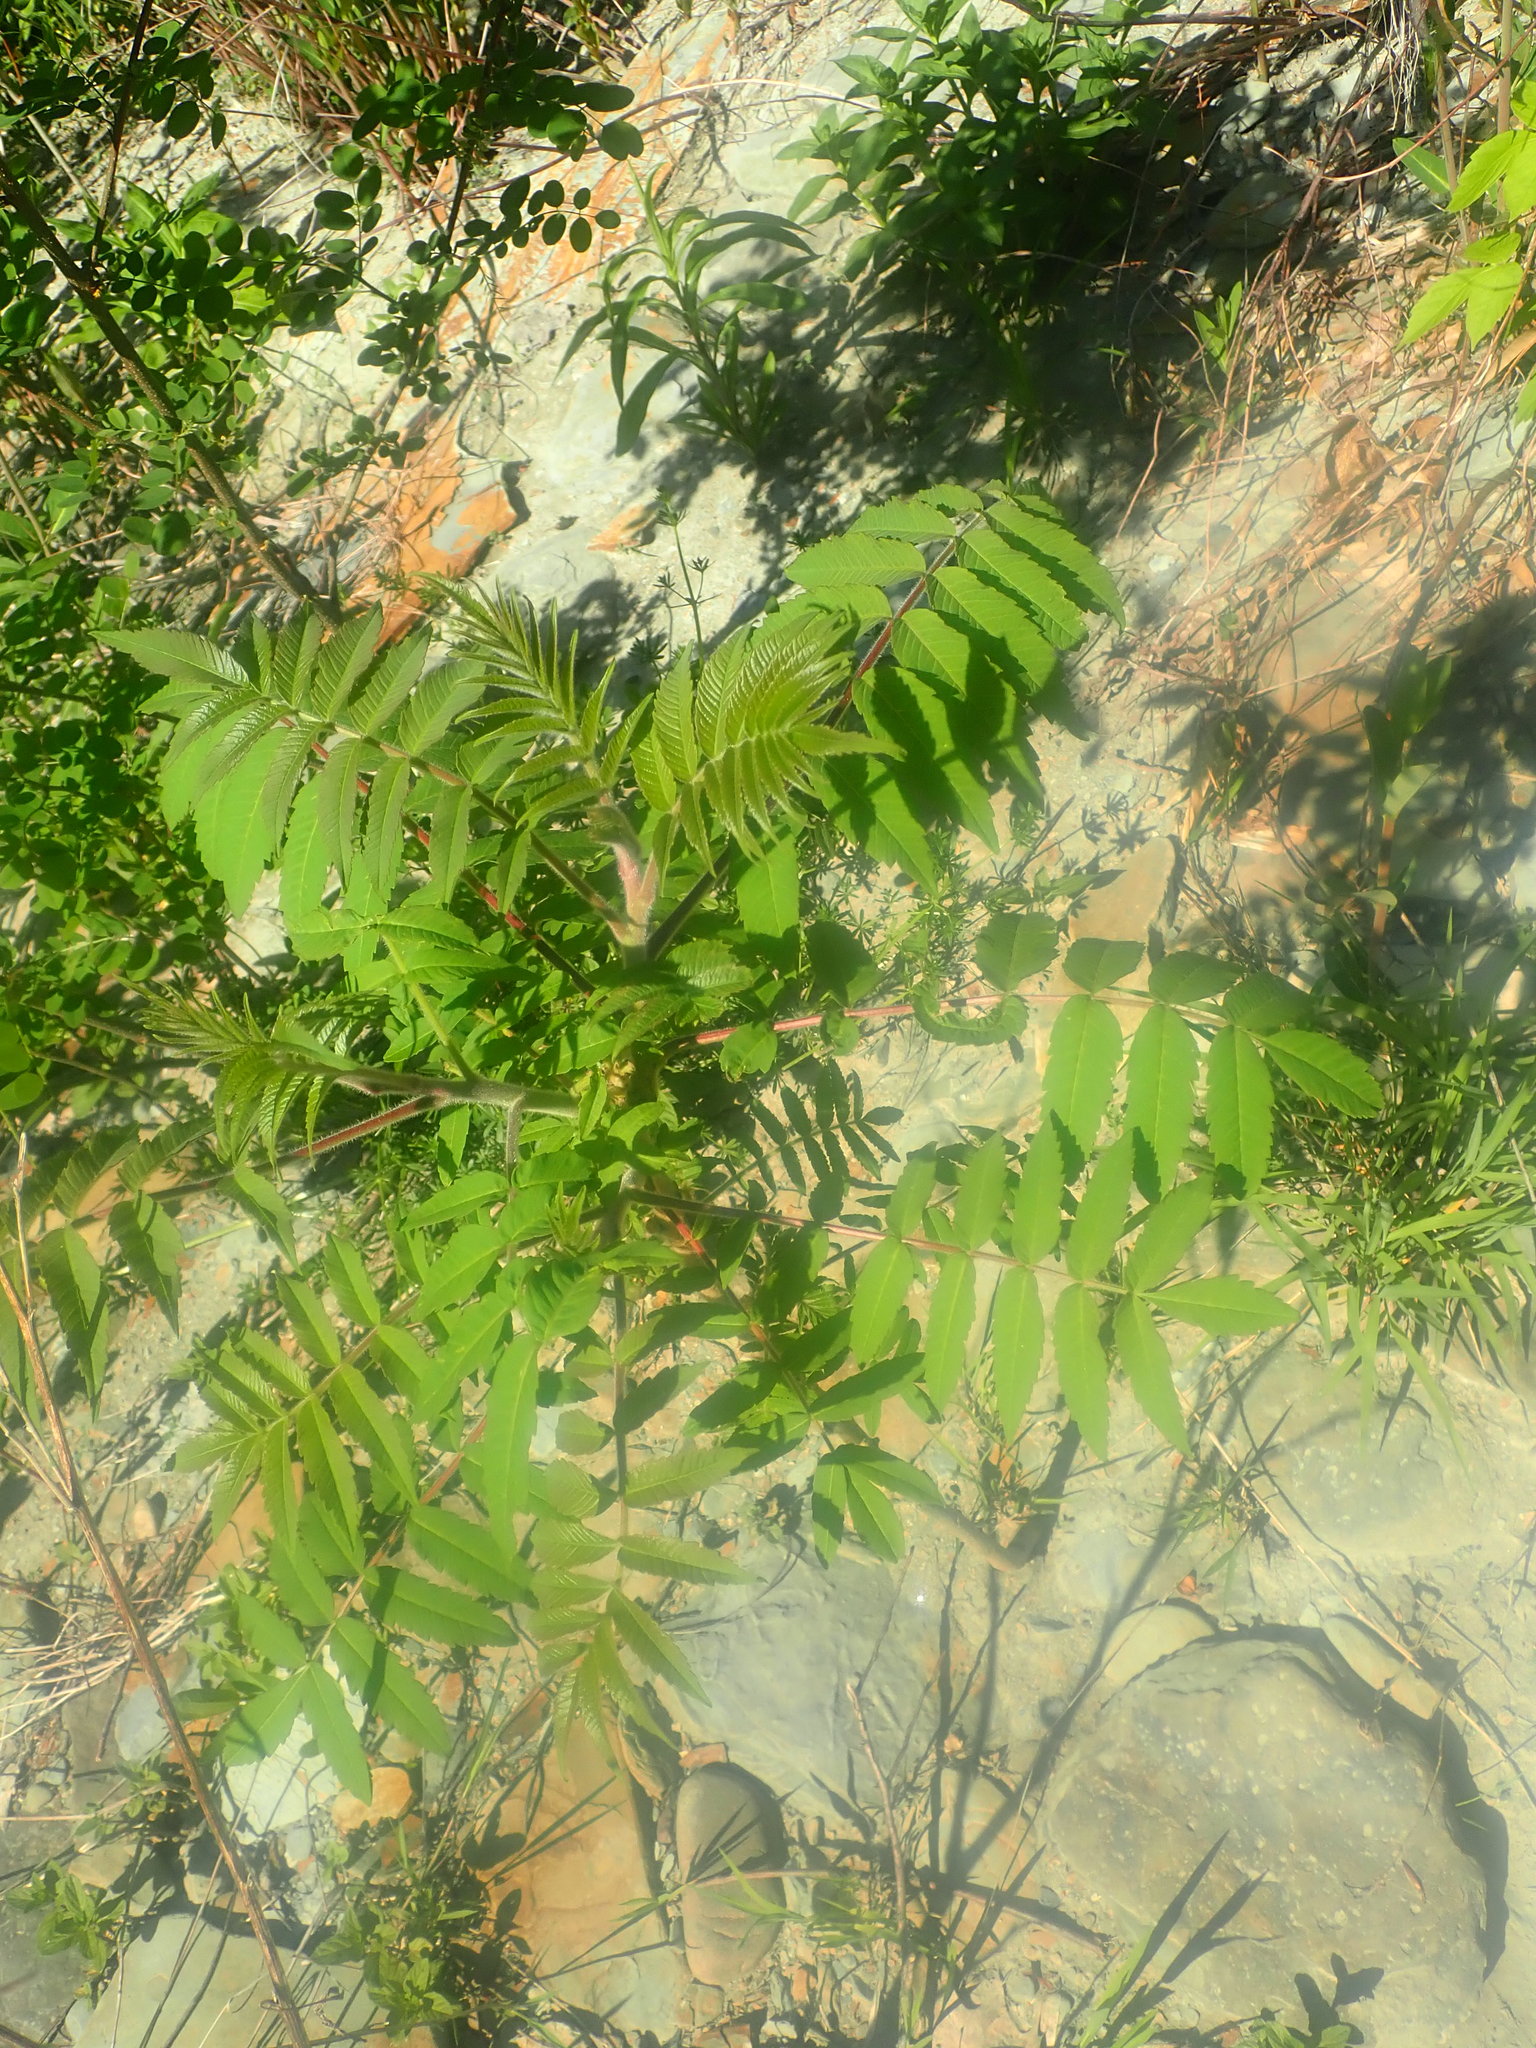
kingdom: Plantae
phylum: Tracheophyta
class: Magnoliopsida
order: Sapindales
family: Anacardiaceae
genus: Rhus
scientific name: Rhus typhina
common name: Staghorn sumac
